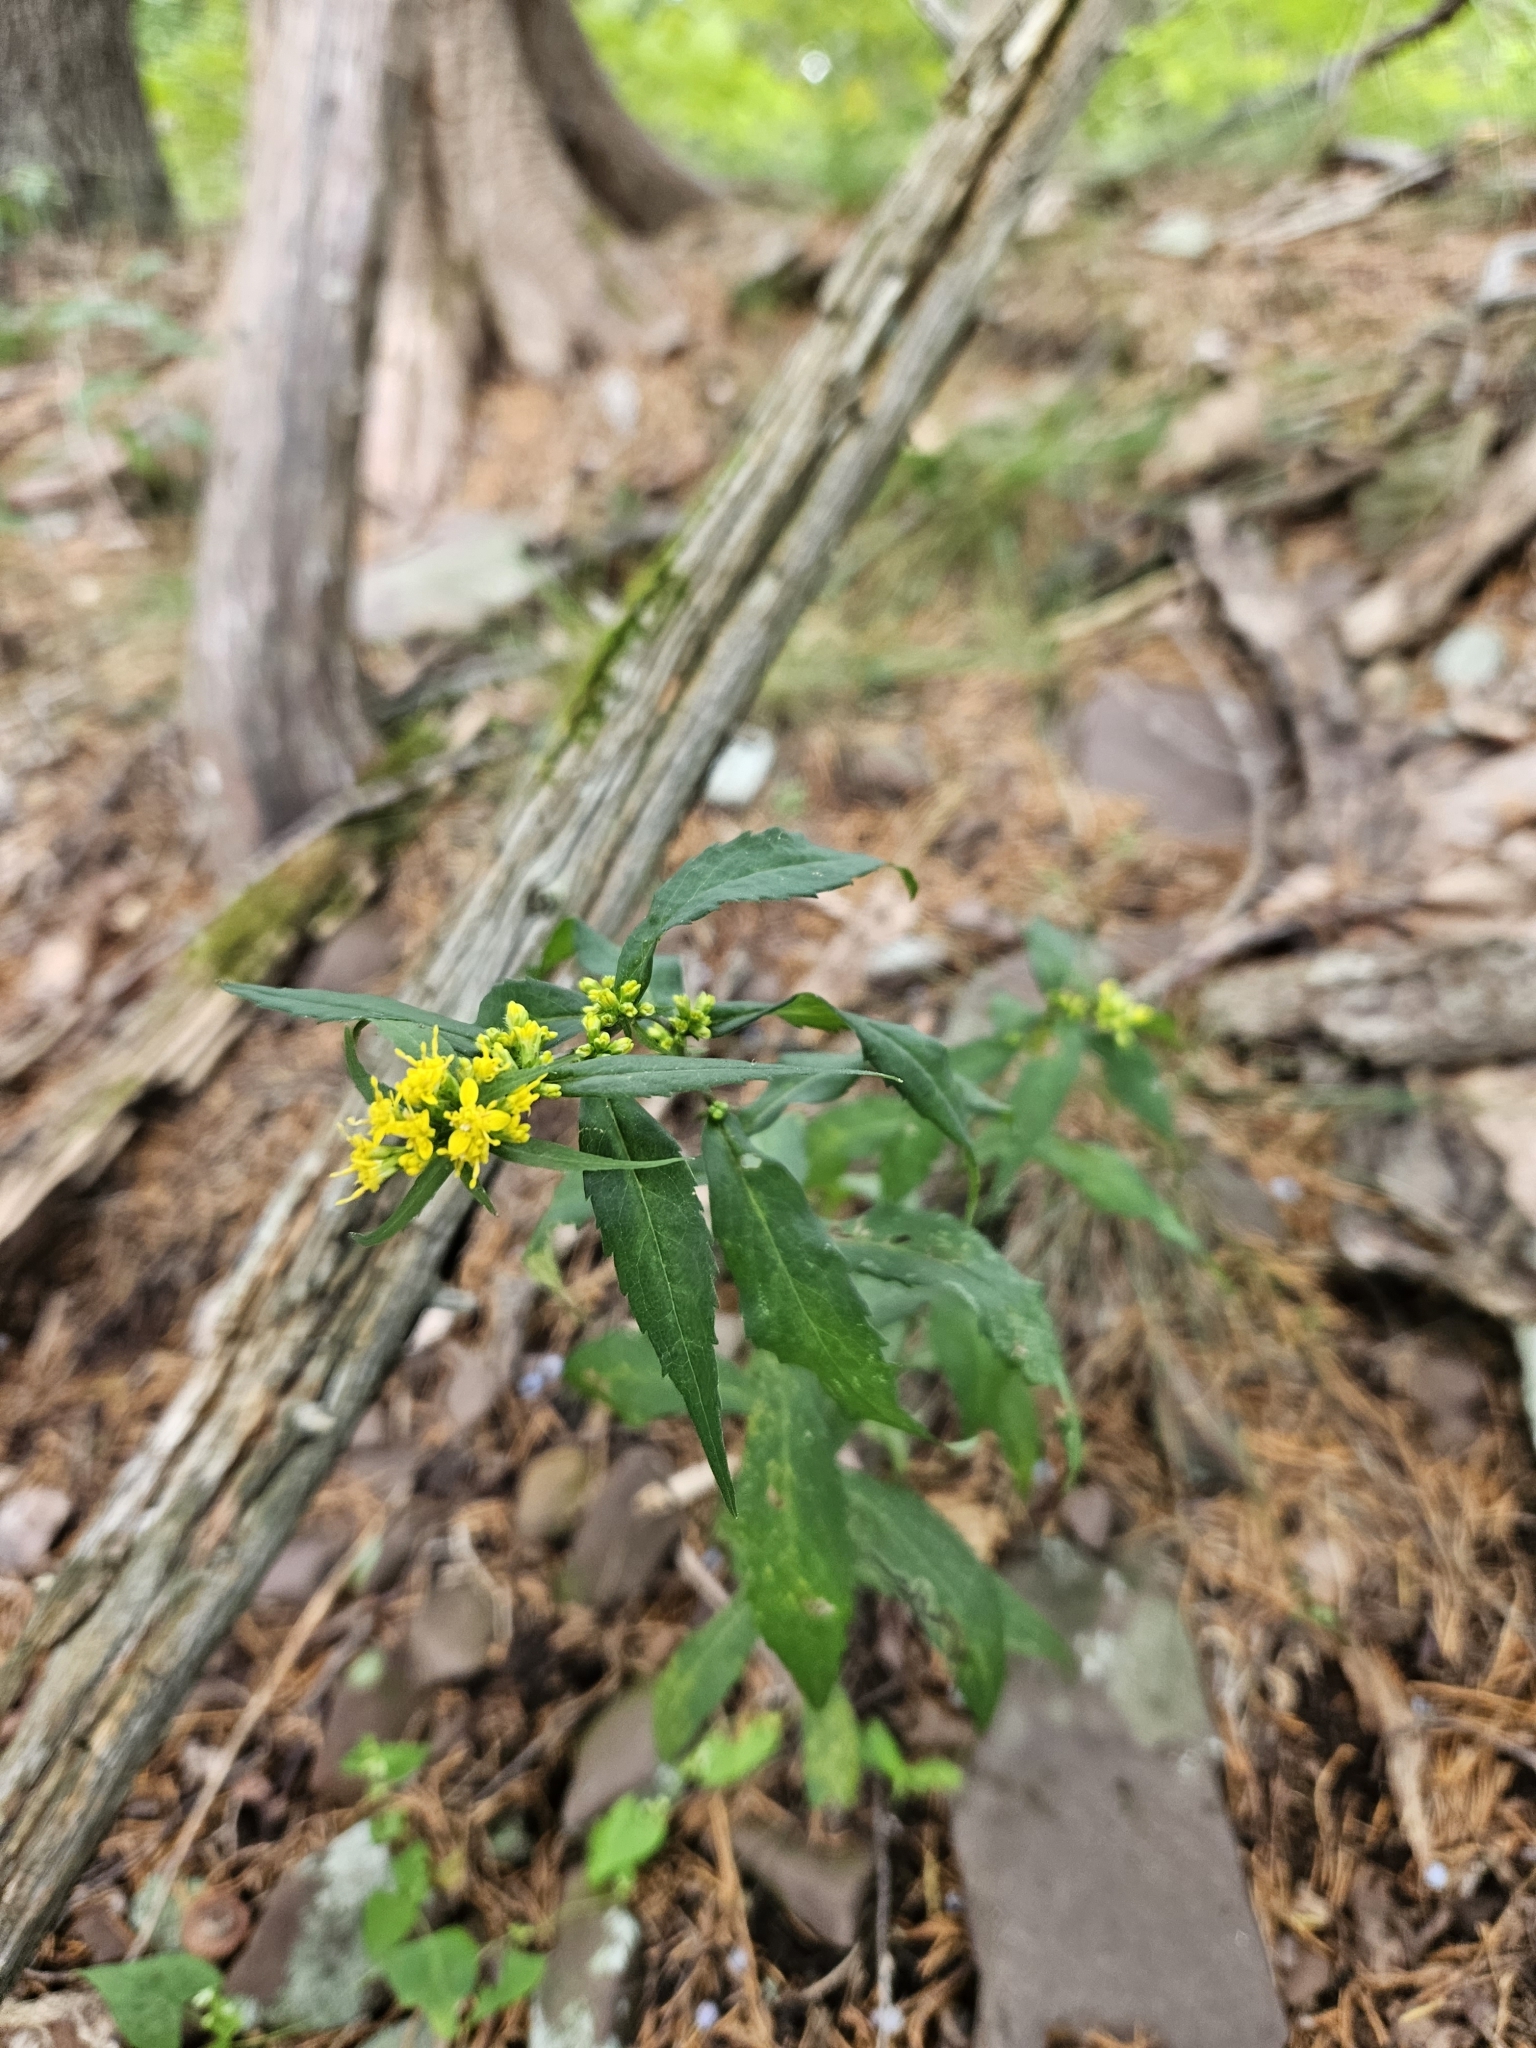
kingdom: Plantae
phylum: Tracheophyta
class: Magnoliopsida
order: Asterales
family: Asteraceae
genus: Solidago
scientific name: Solidago caesia
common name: Woodland goldenrod
